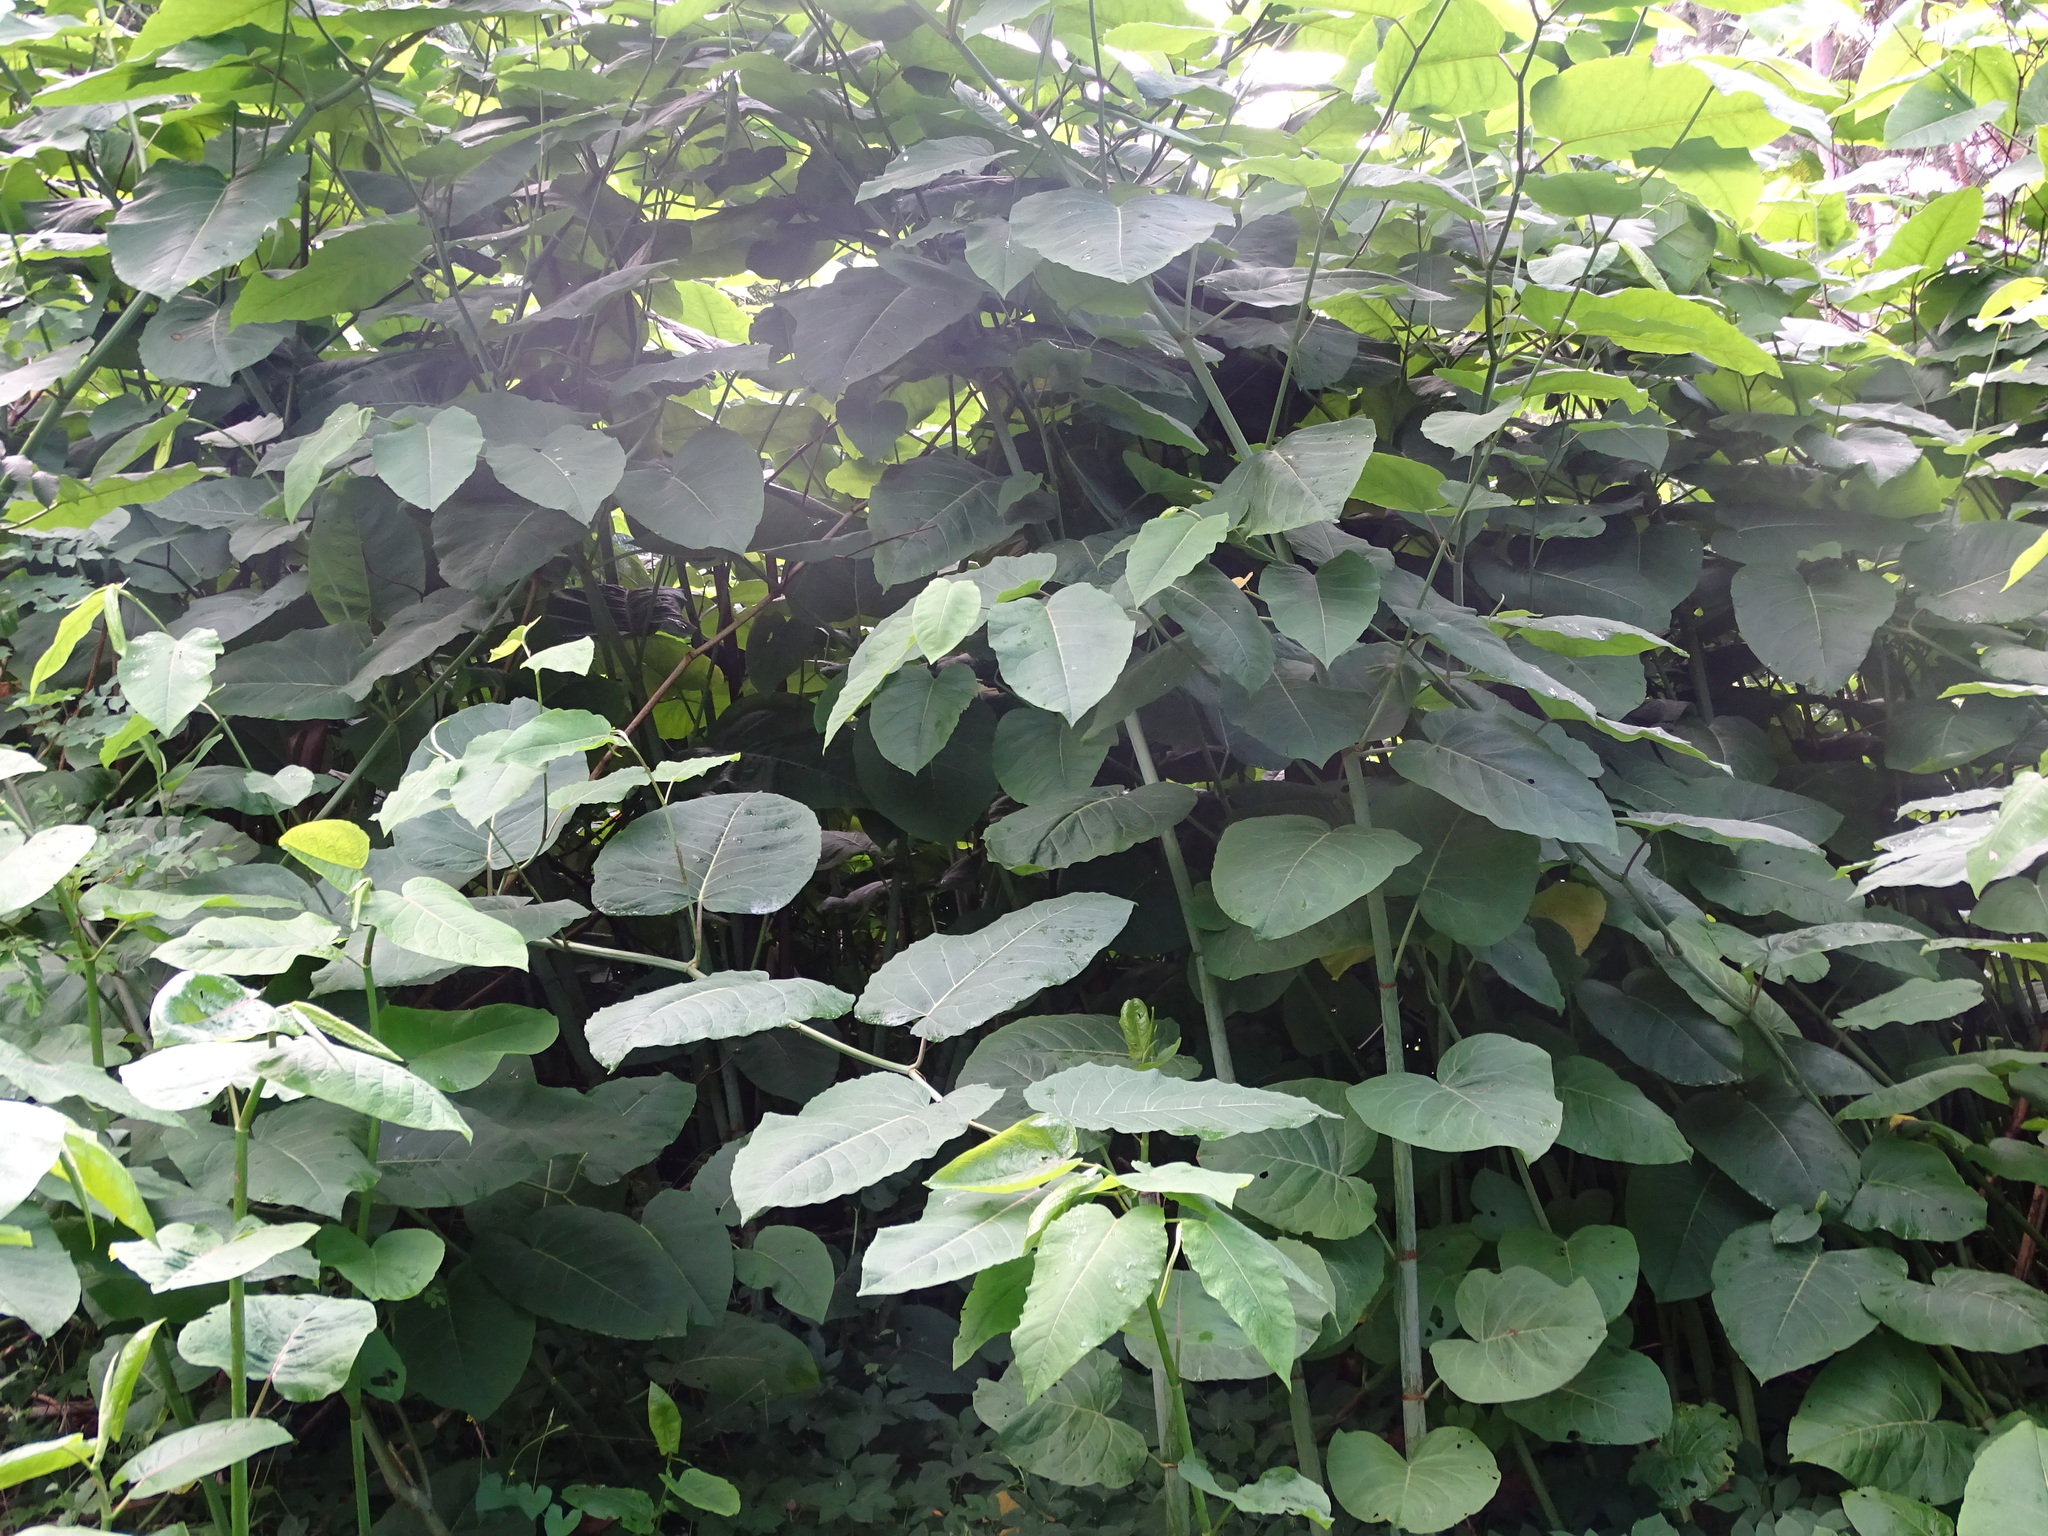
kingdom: Plantae
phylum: Tracheophyta
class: Magnoliopsida
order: Caryophyllales
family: Polygonaceae
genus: Reynoutria
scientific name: Reynoutria sachalinensis
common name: Giant knotweed
